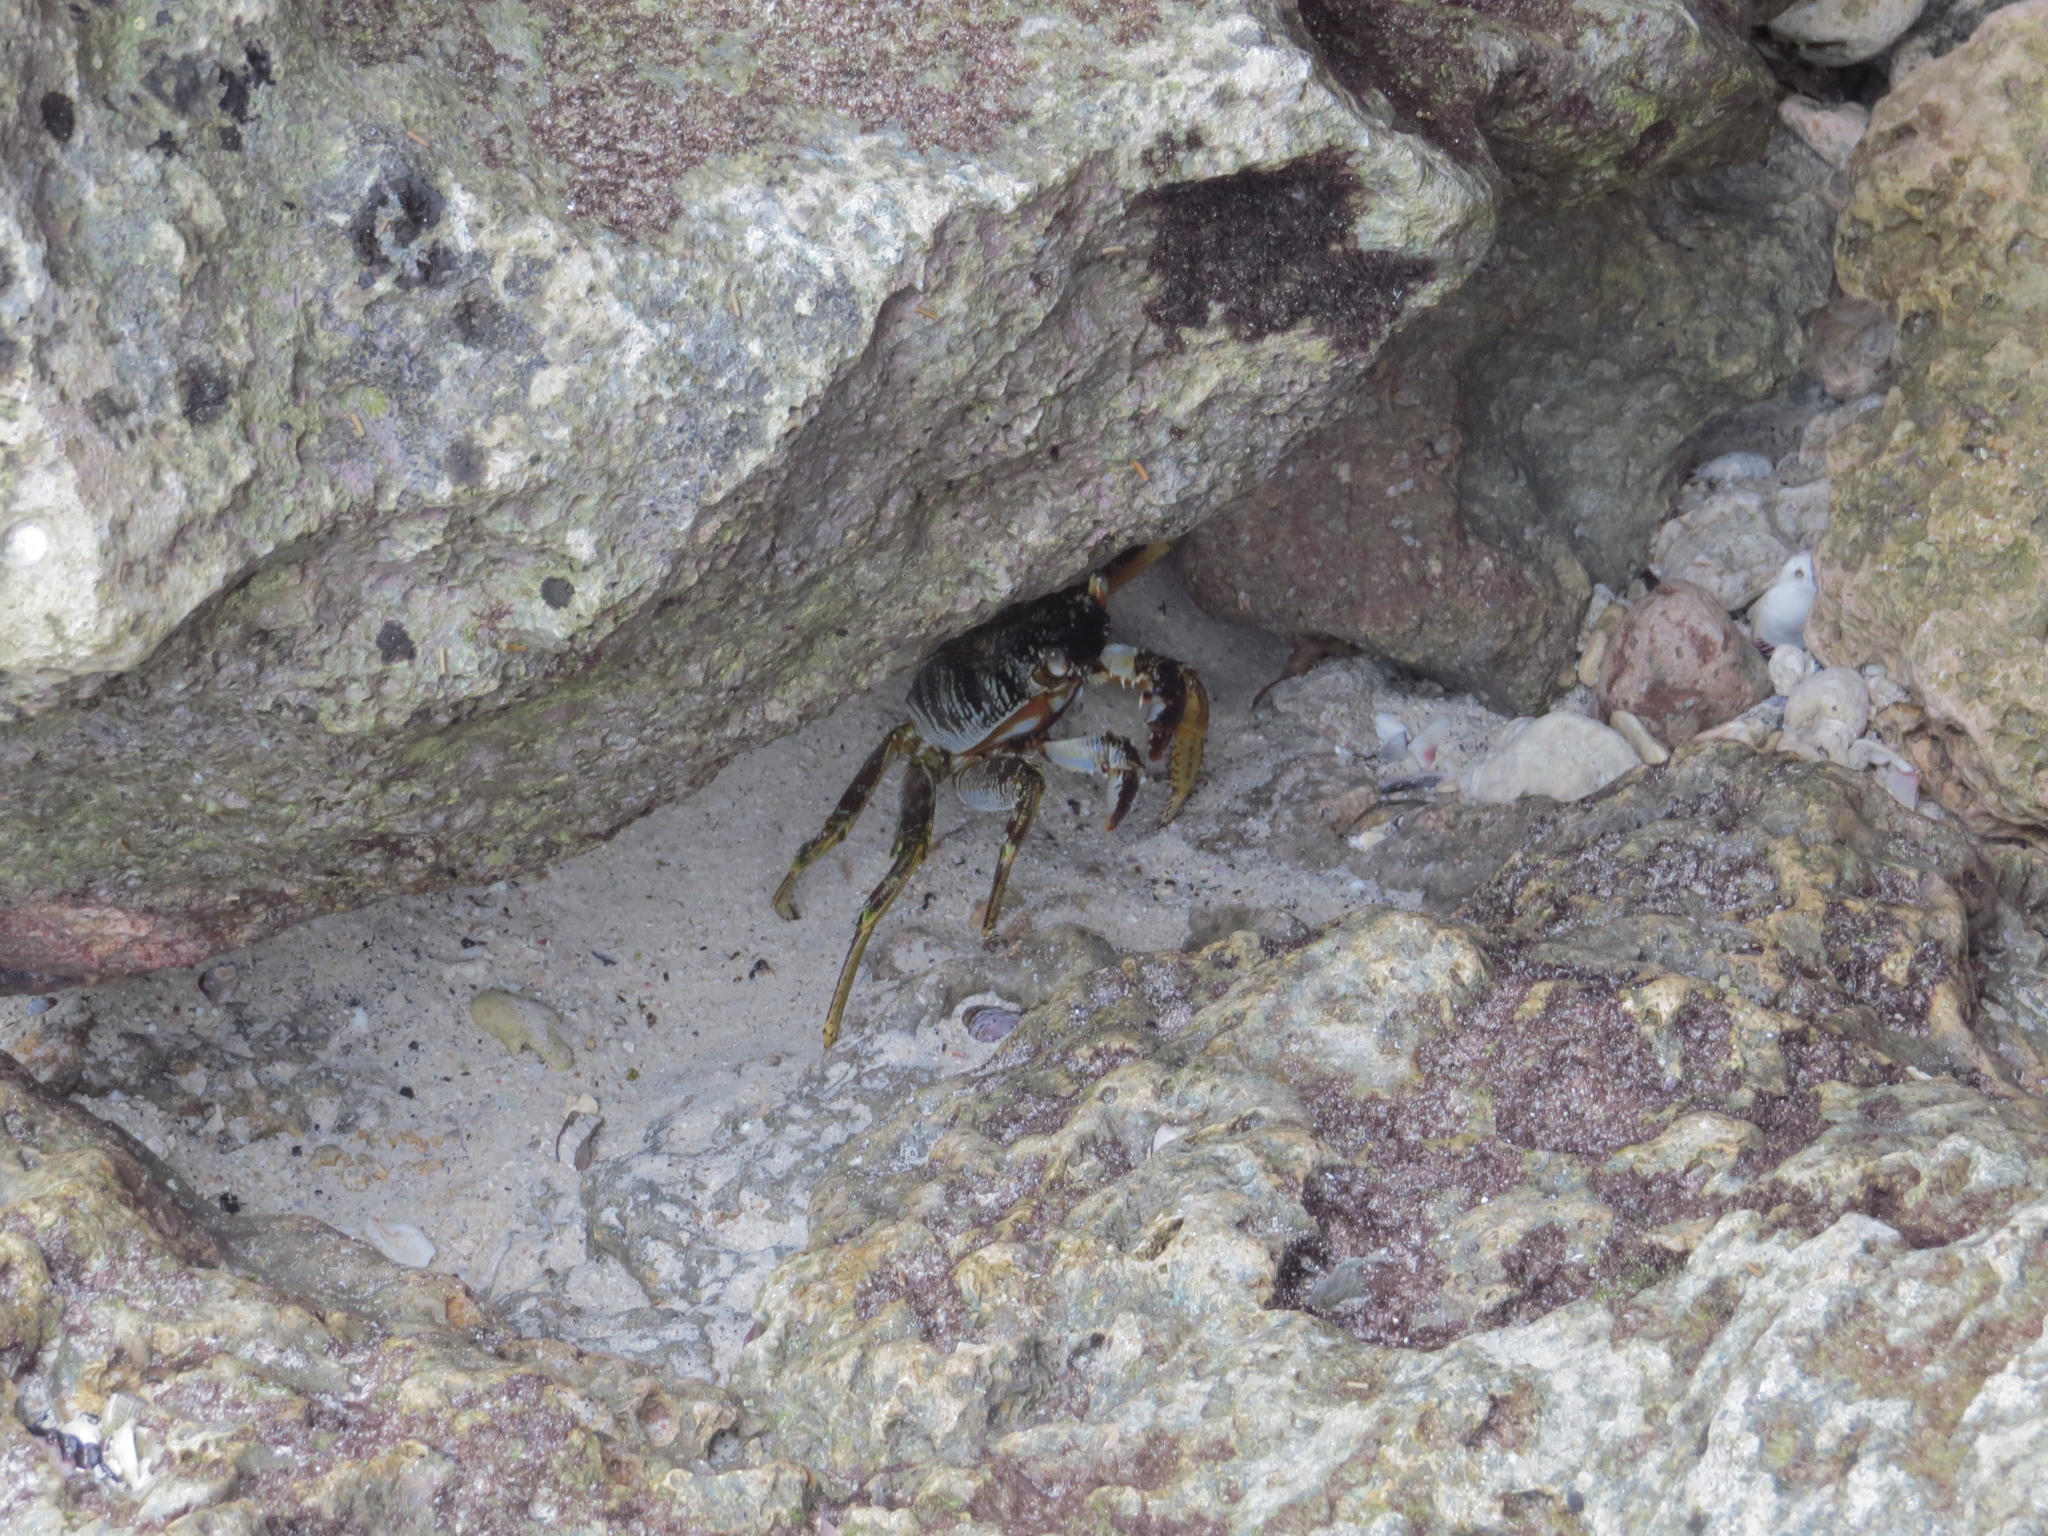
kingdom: Animalia
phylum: Arthropoda
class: Malacostraca
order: Decapoda
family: Grapsidae
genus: Grapsus
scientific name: Grapsus tenuicrustatus
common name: Natal lightfoot crab
